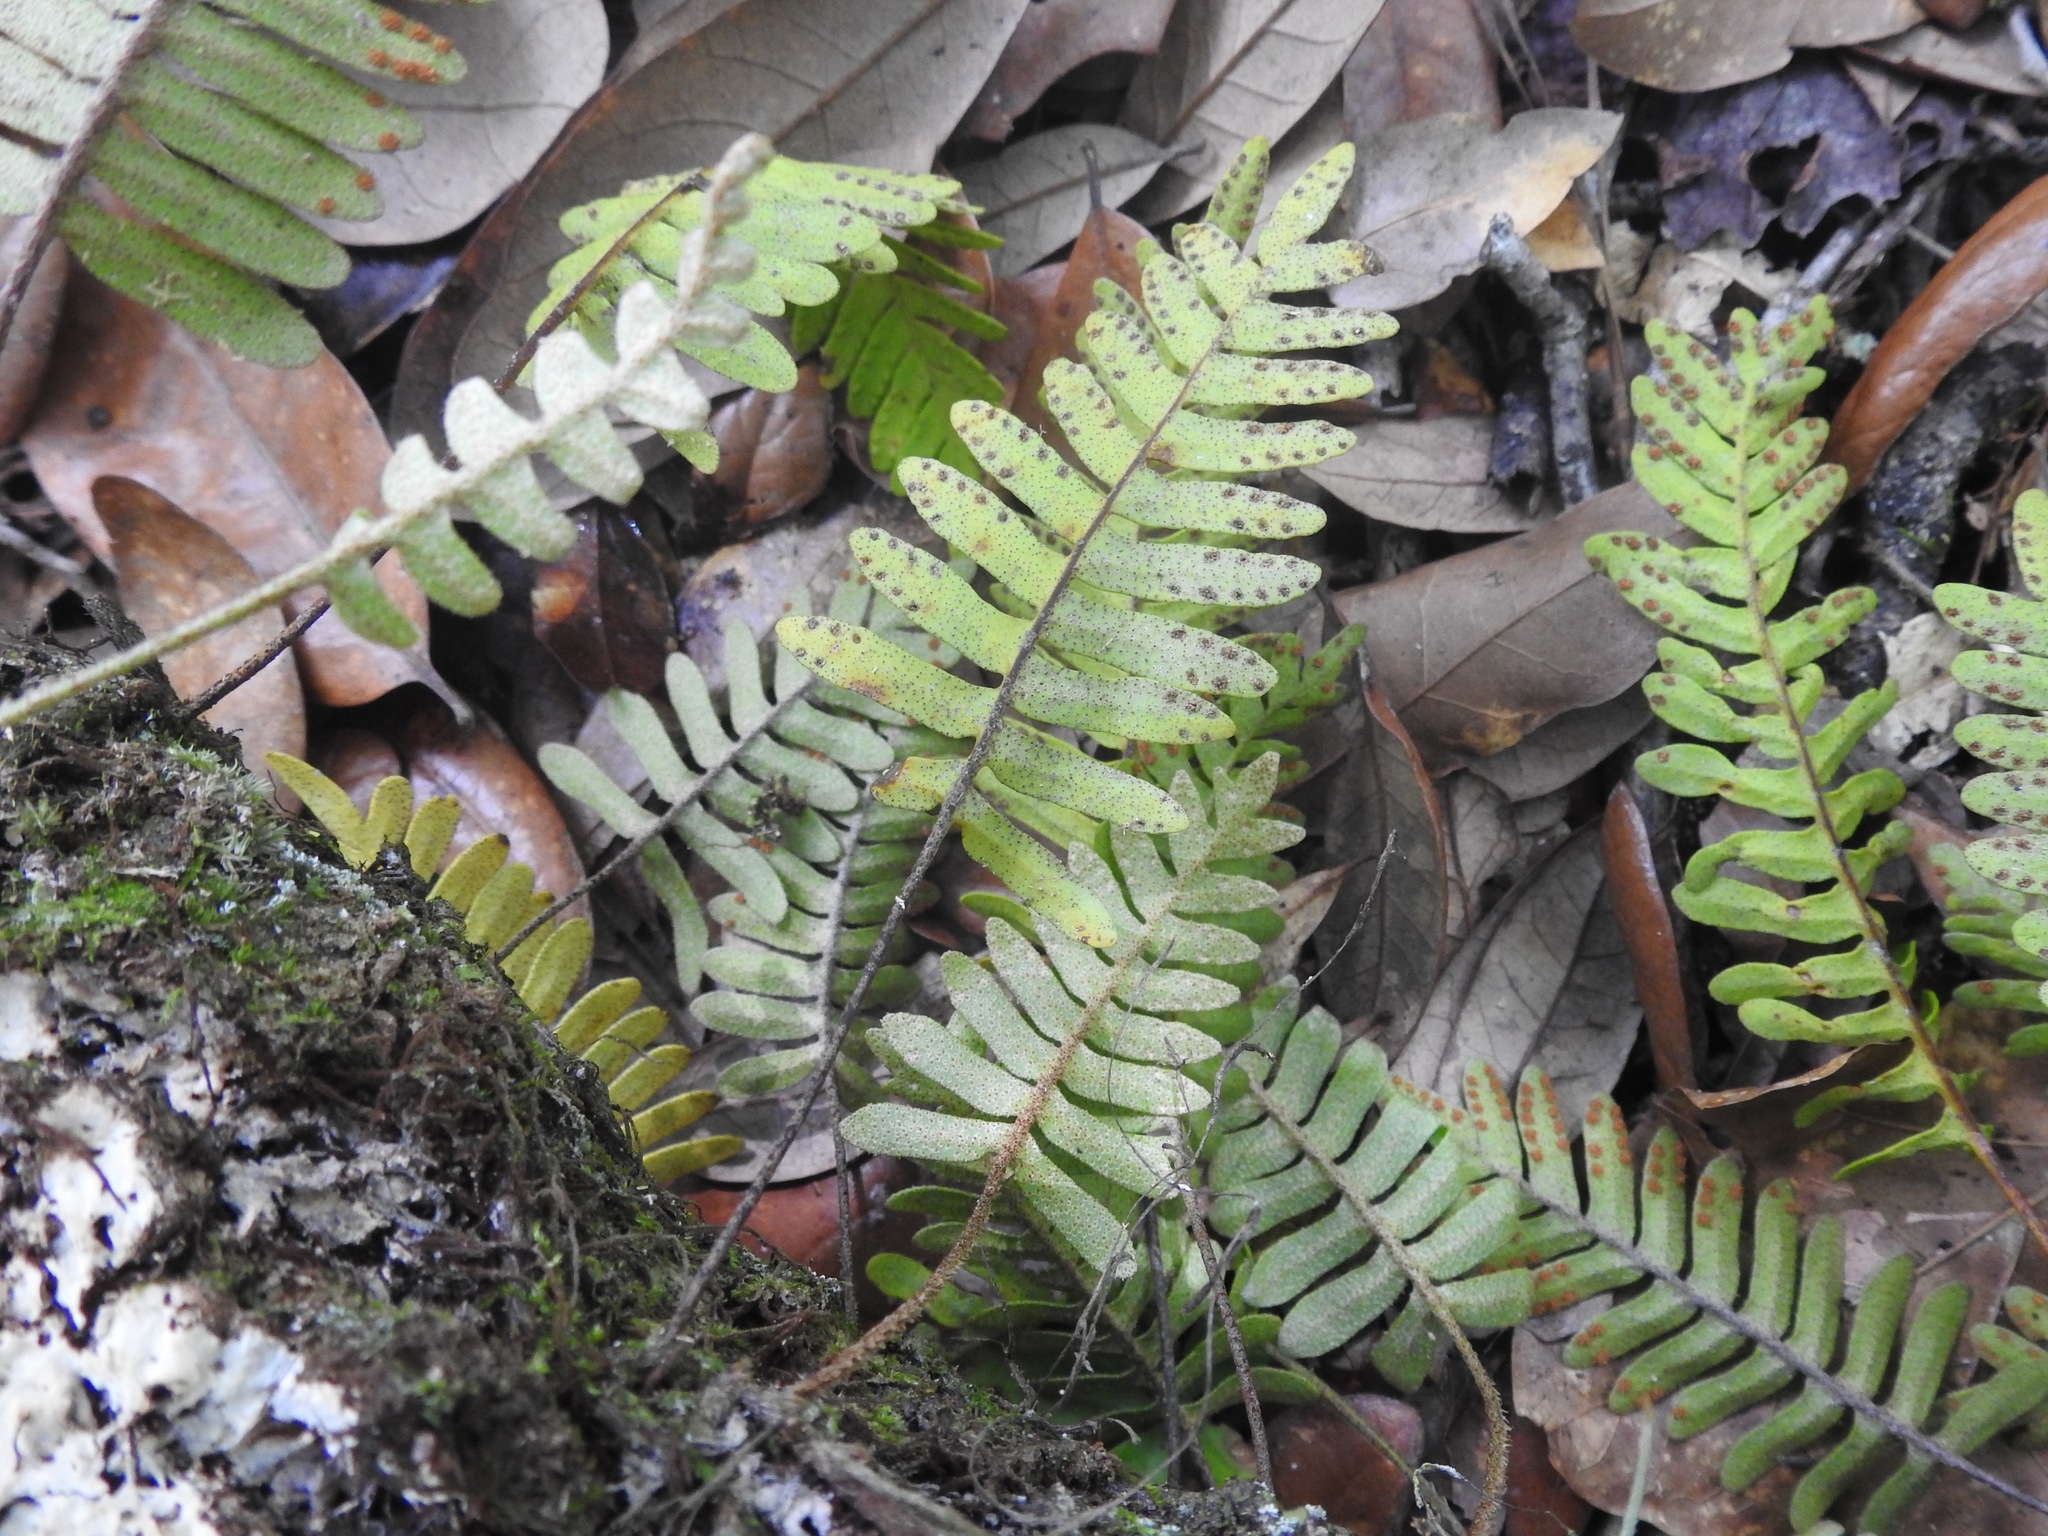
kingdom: Plantae
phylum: Tracheophyta
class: Polypodiopsida
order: Polypodiales
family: Polypodiaceae
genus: Pleopeltis
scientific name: Pleopeltis michauxiana
